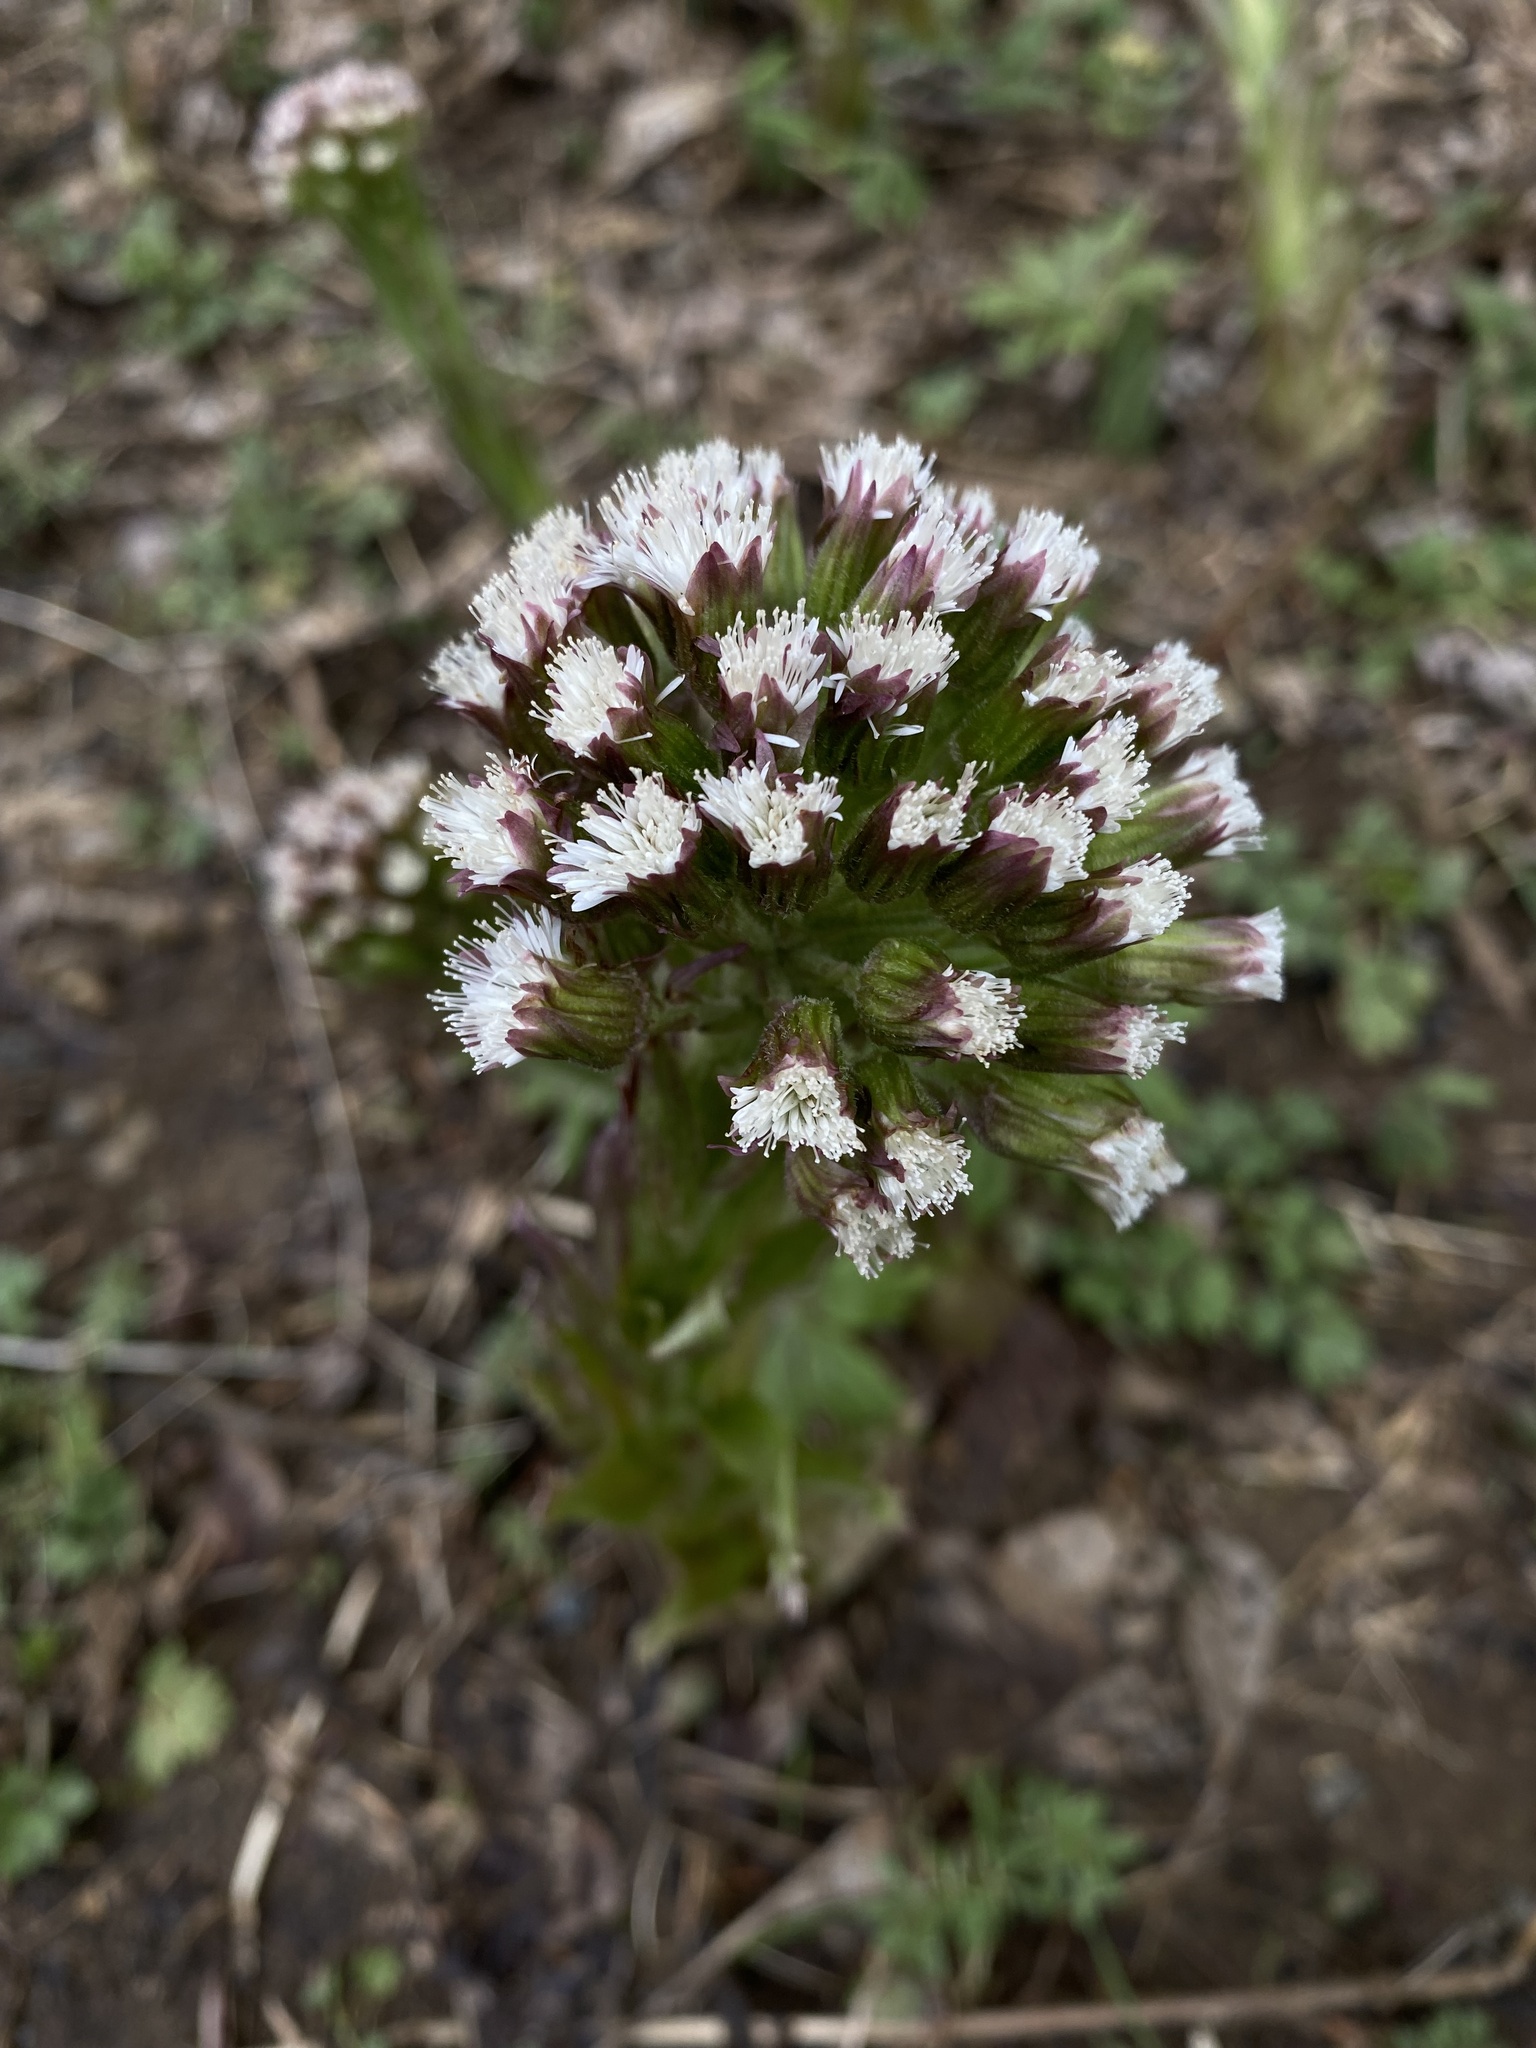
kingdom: Plantae
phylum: Tracheophyta
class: Magnoliopsida
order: Asterales
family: Asteraceae
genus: Petasites
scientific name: Petasites frigidus
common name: Arctic butterbur
